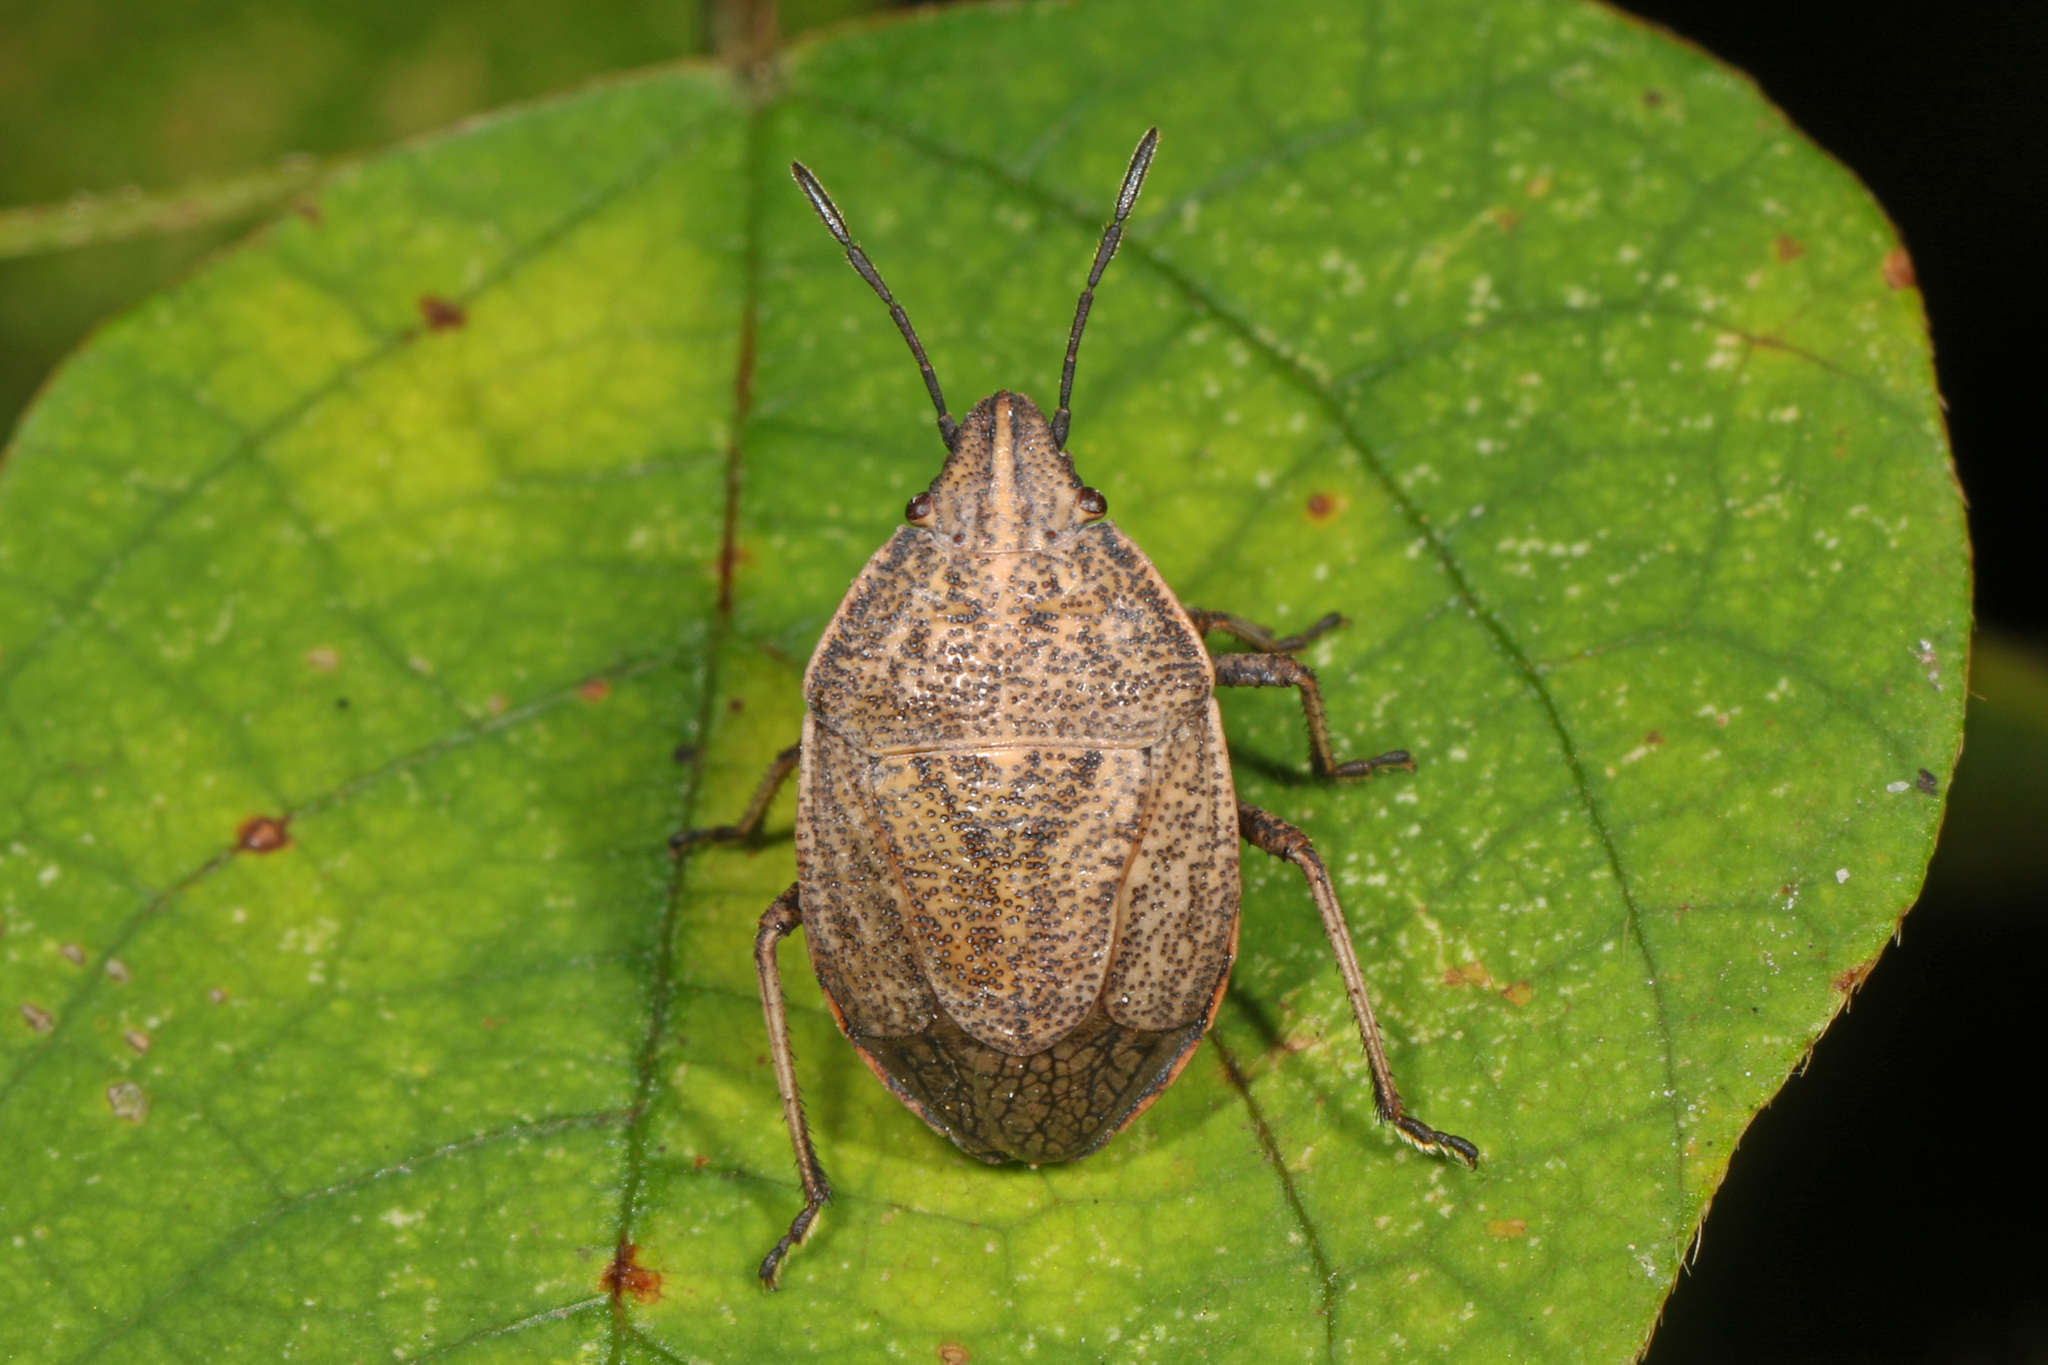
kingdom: Animalia
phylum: Arthropoda
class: Insecta
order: Hemiptera
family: Pentatomidae
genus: Coenus
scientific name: Coenus delius
